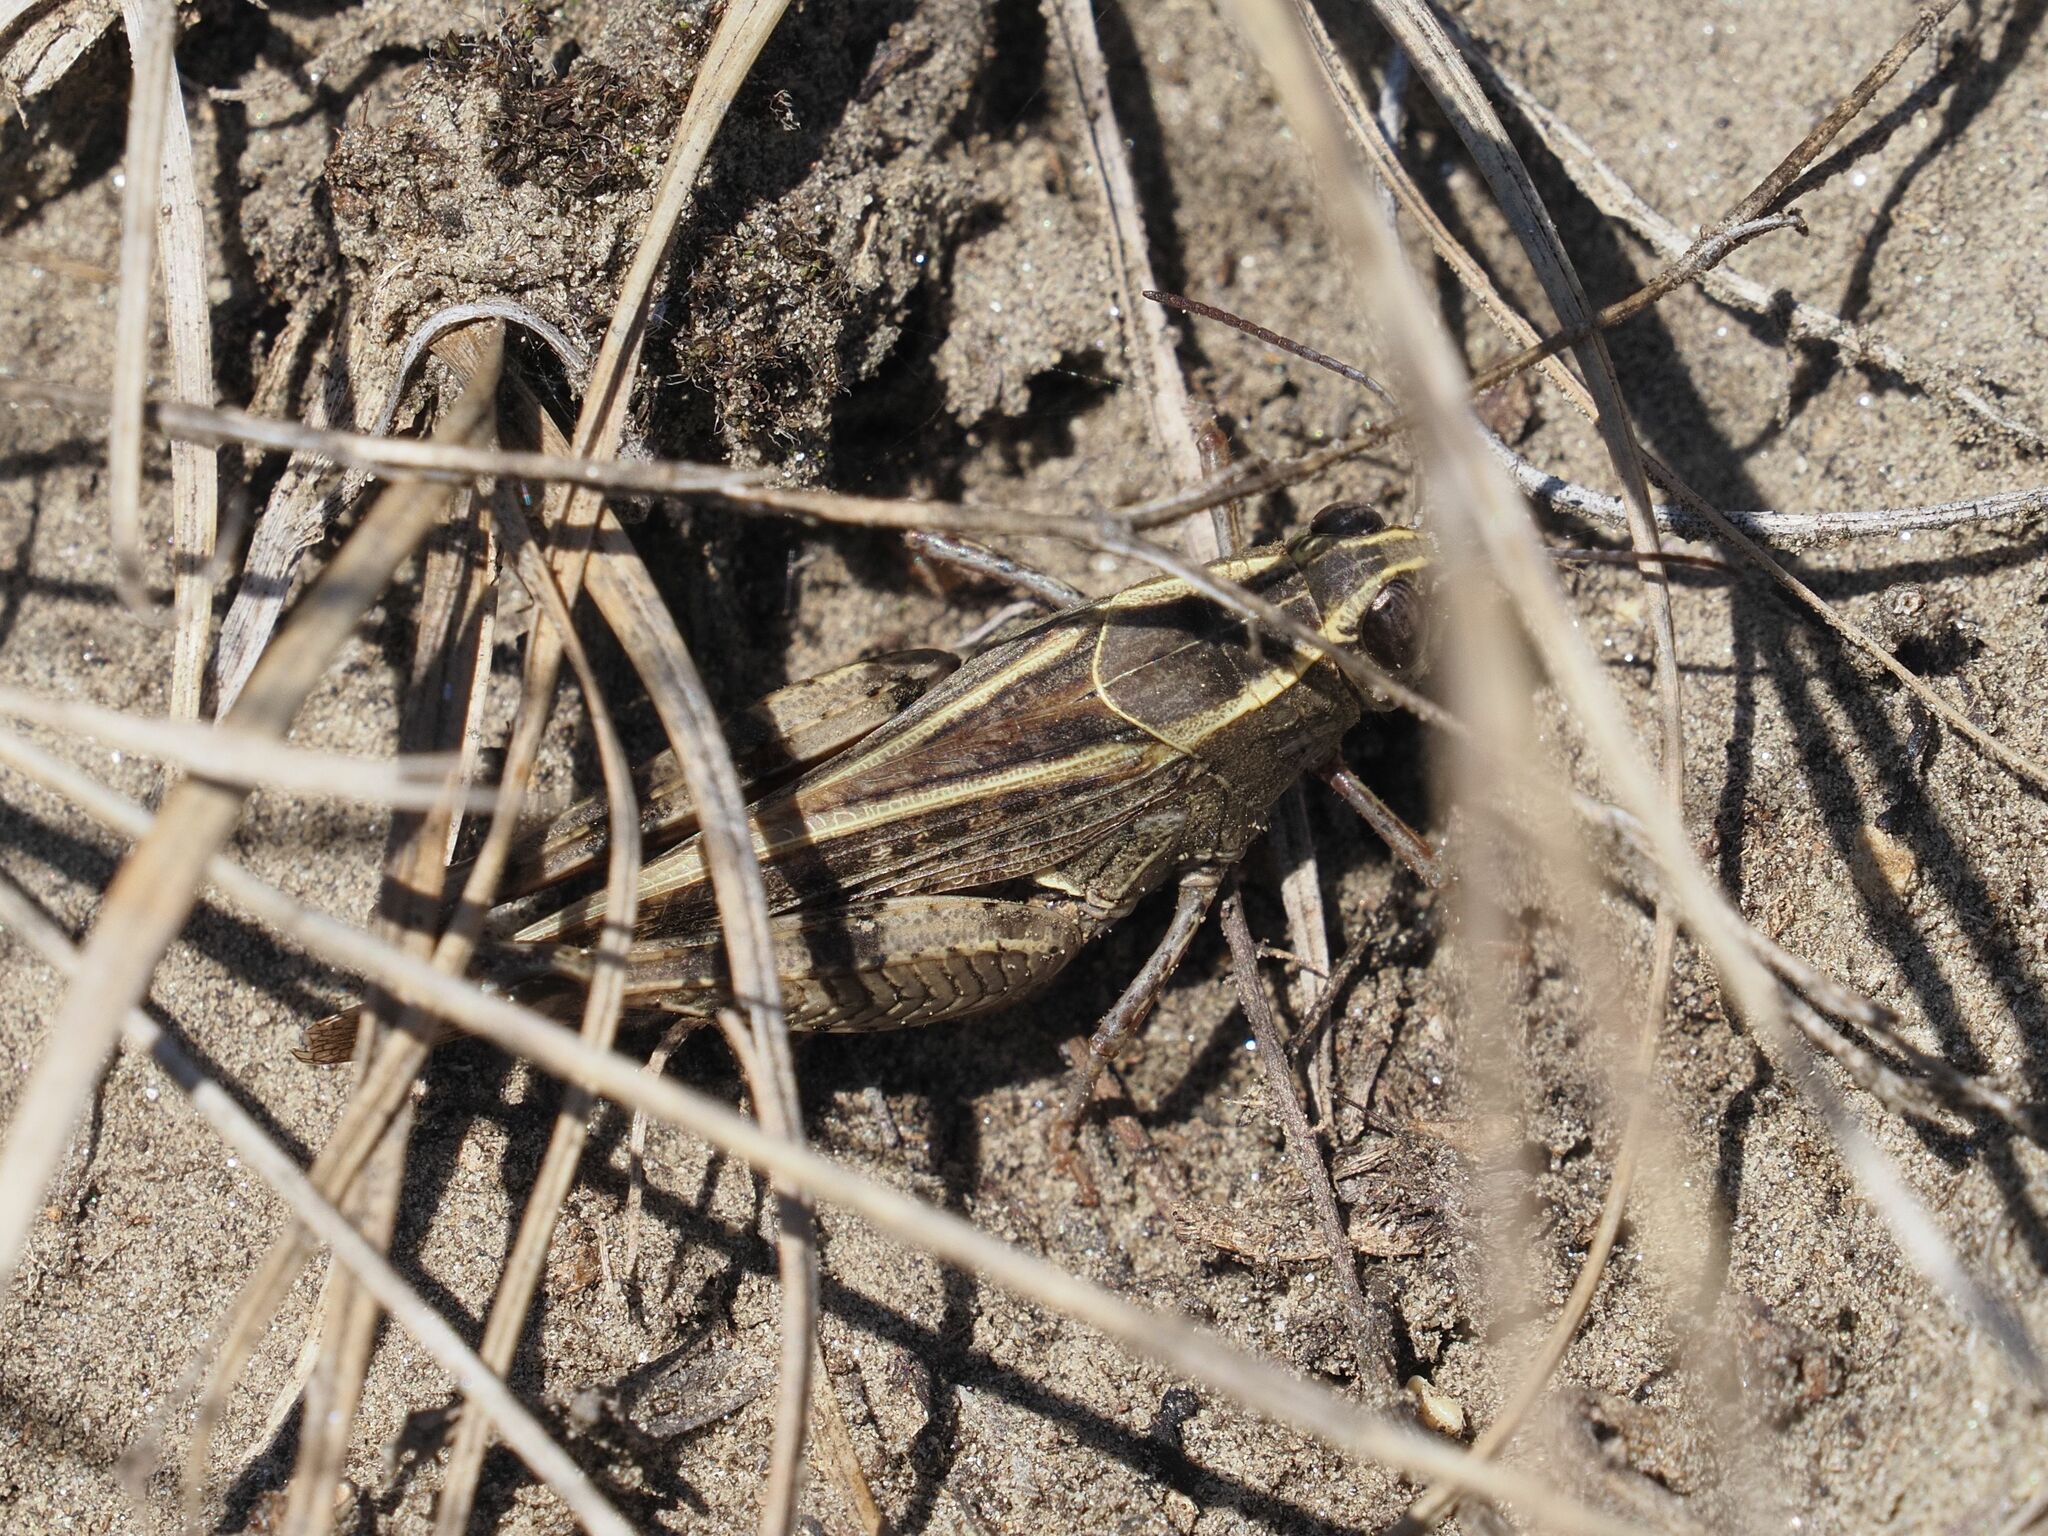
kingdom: Animalia
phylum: Arthropoda
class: Insecta
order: Orthoptera
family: Acrididae
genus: Calliptamus
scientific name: Calliptamus italicus
